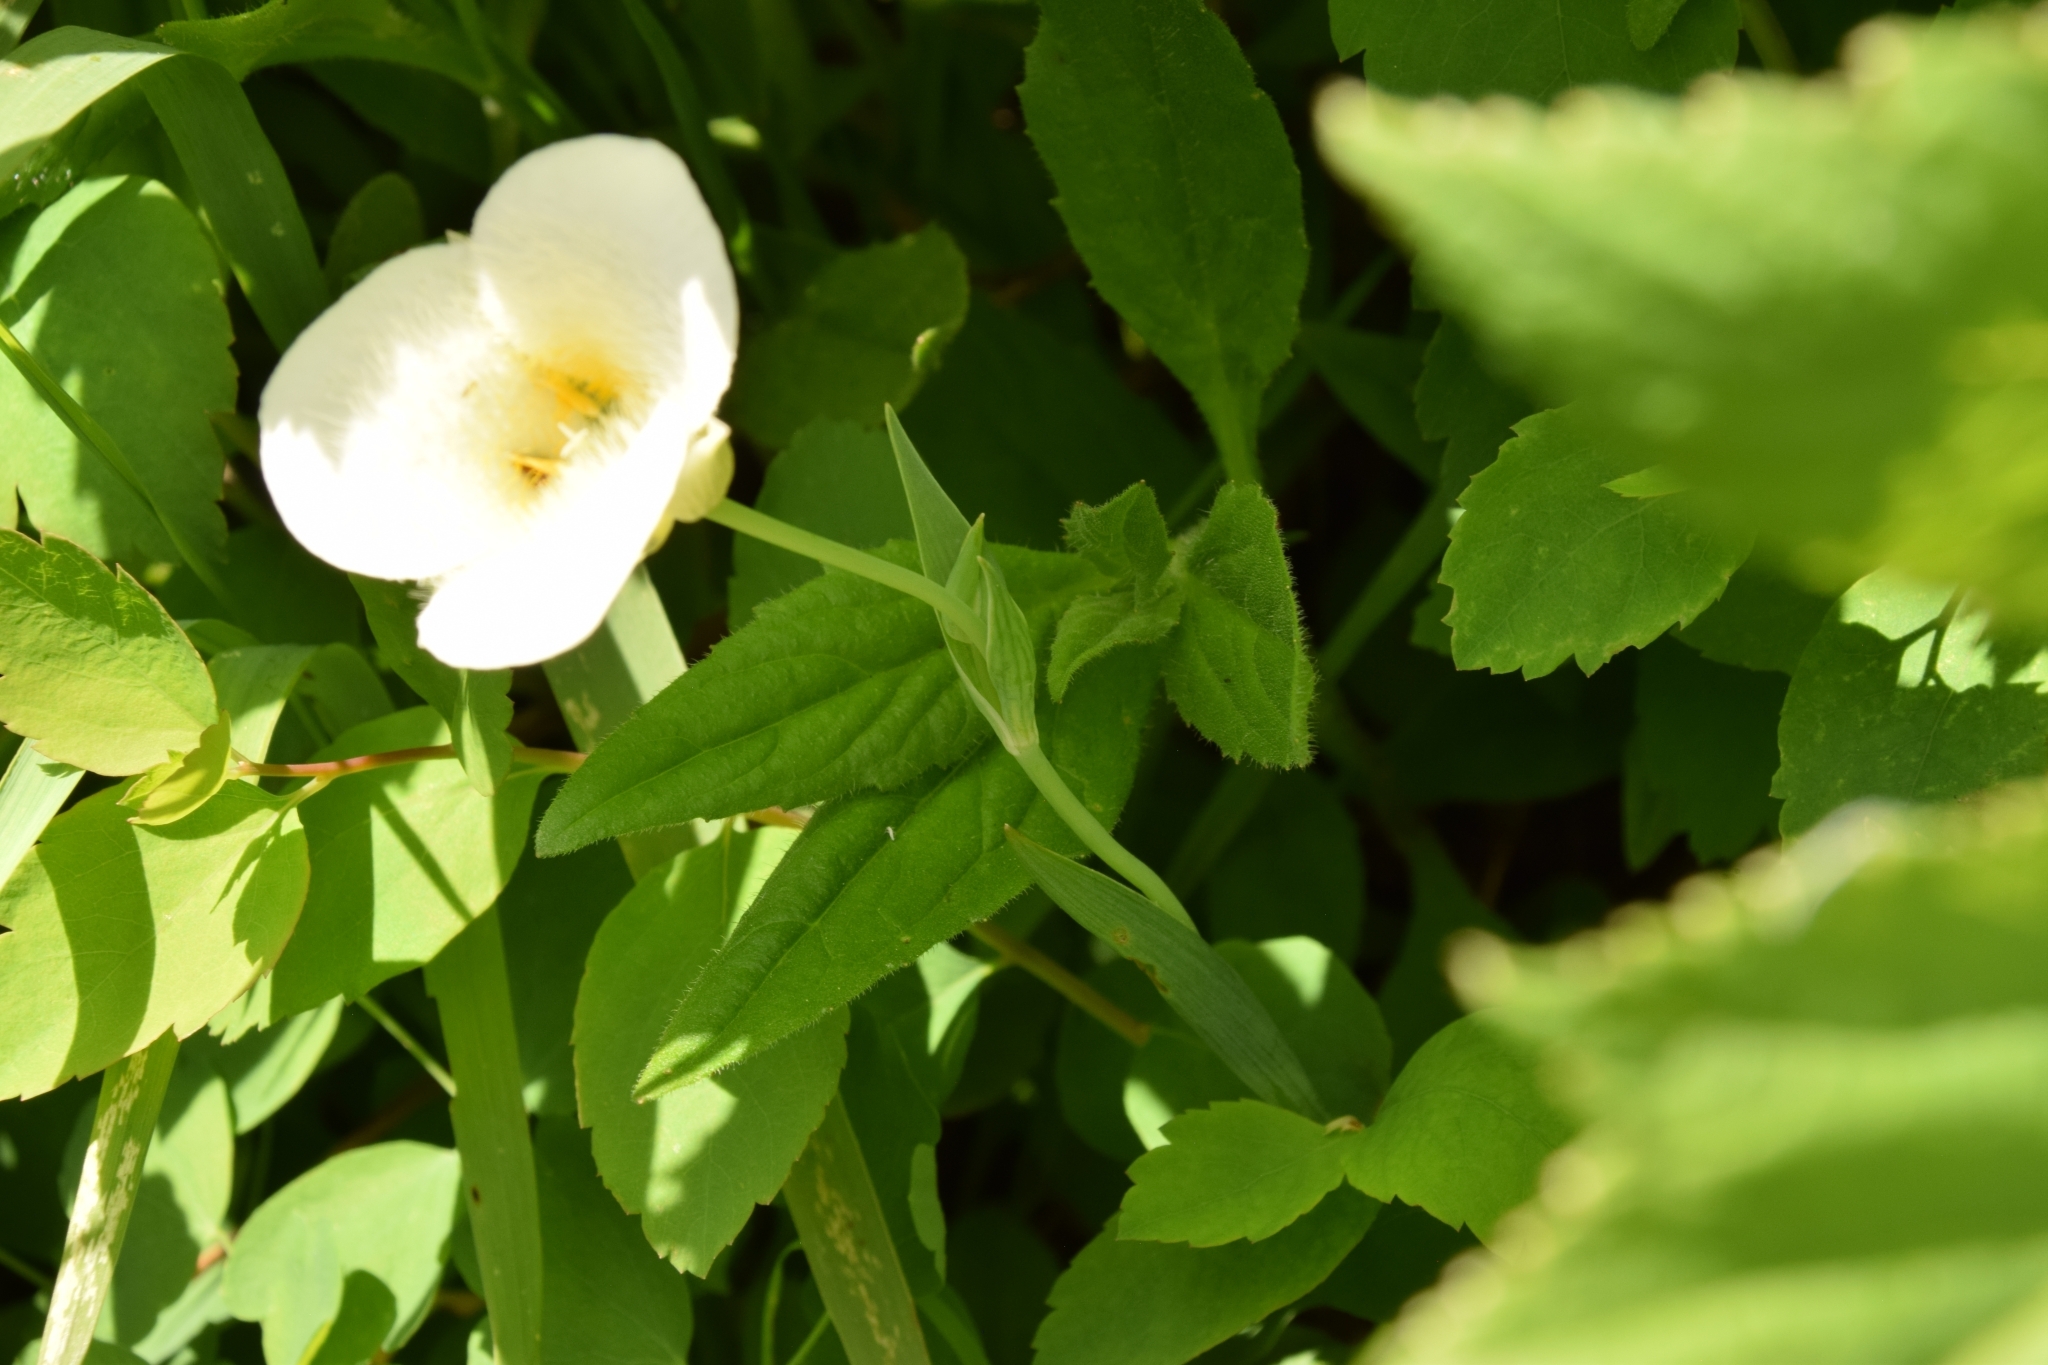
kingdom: Plantae
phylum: Tracheophyta
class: Liliopsida
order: Liliales
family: Liliaceae
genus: Calochortus
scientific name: Calochortus apiculatus
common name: Baker's mariposa lily
